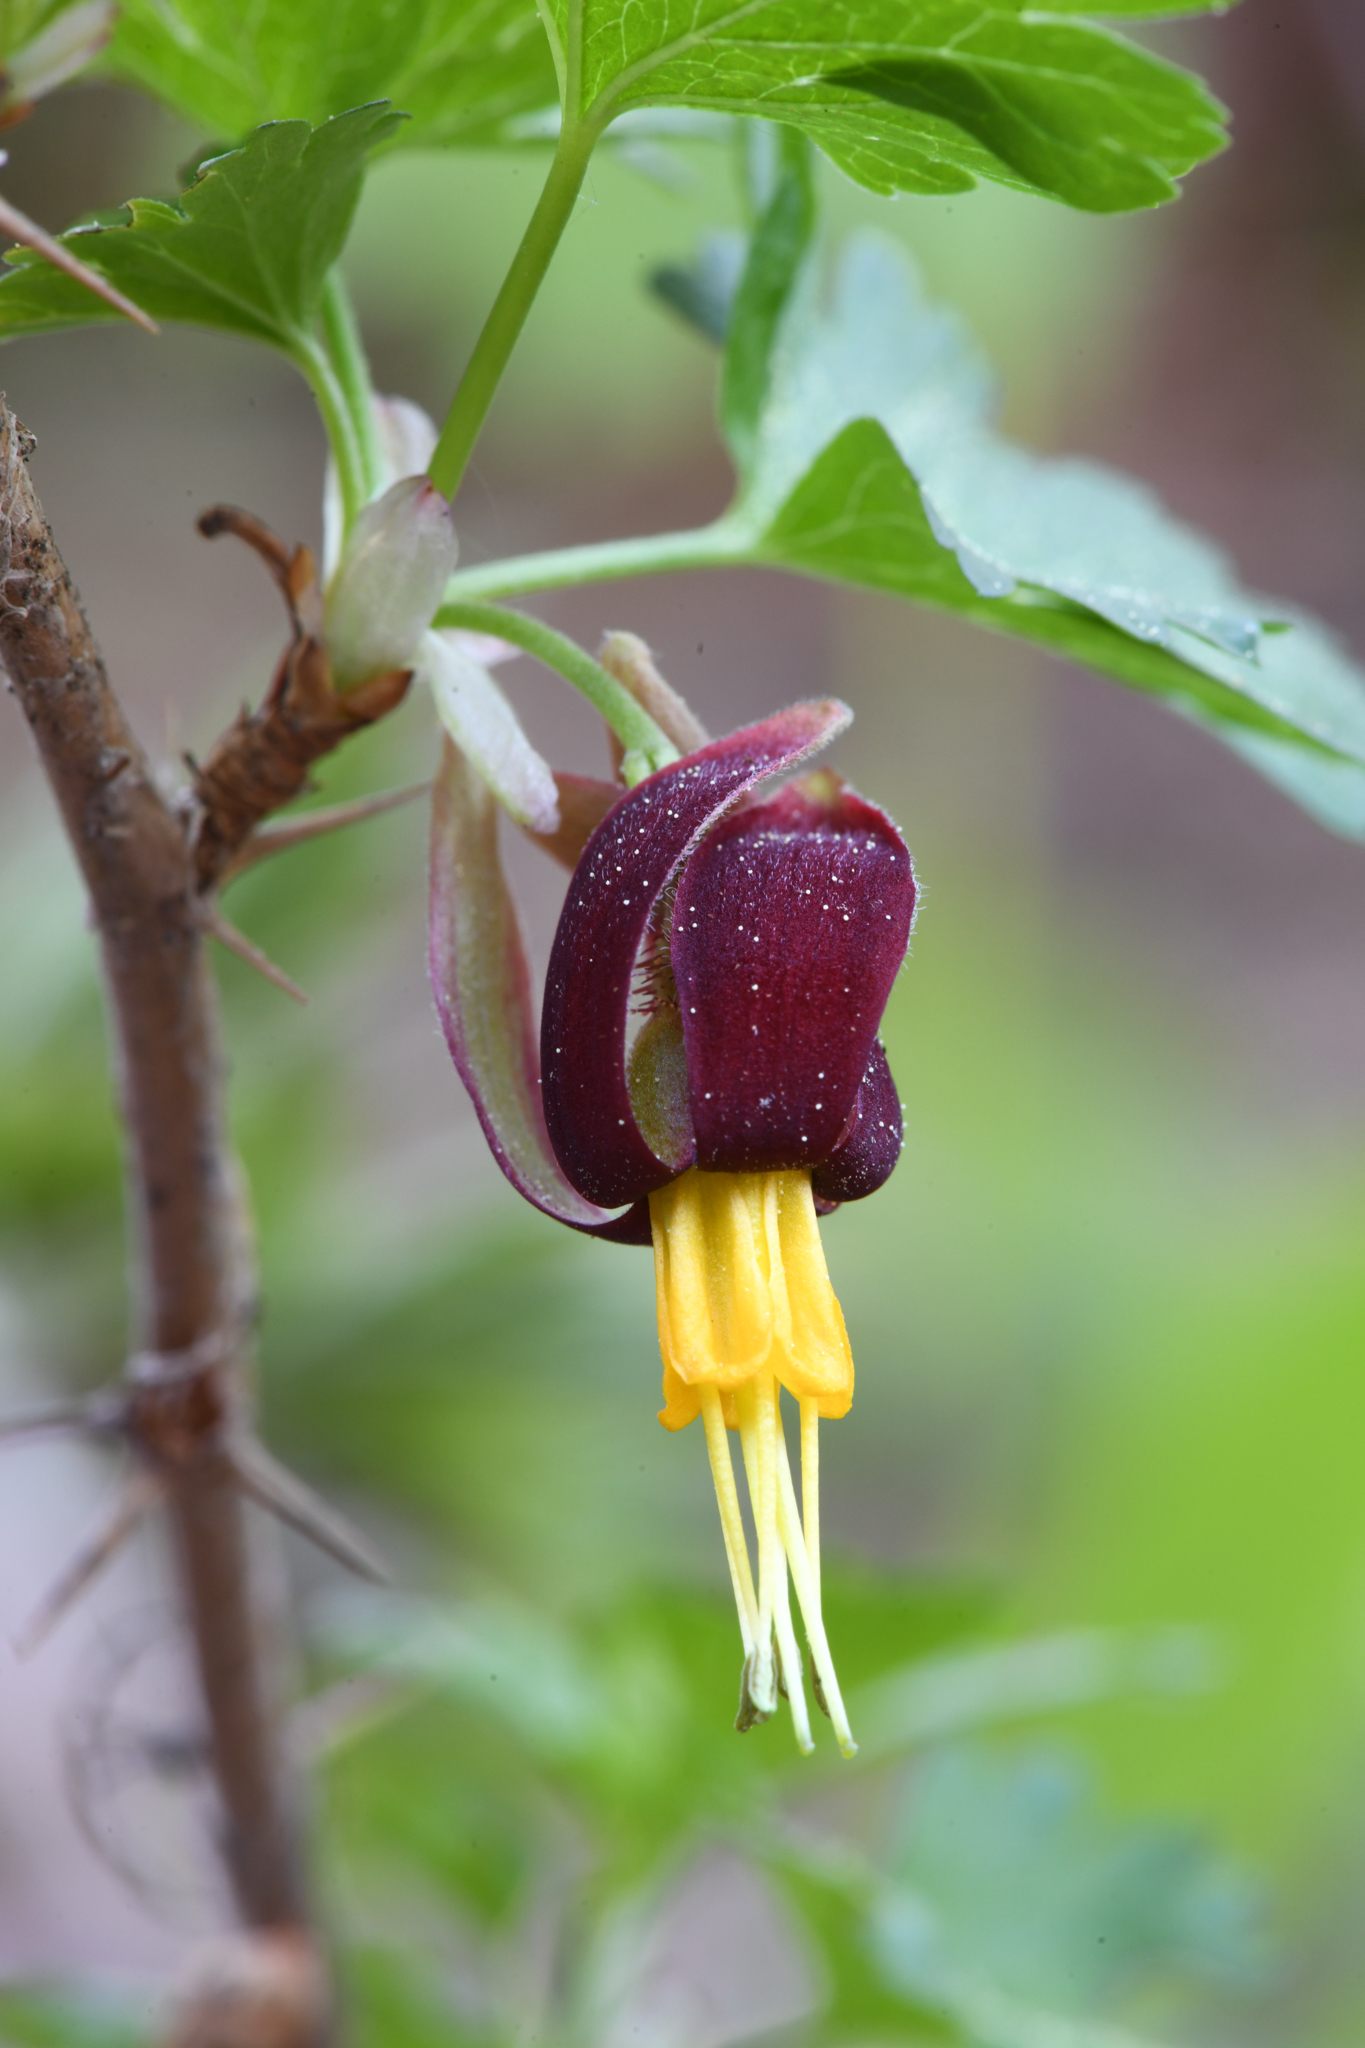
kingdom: Plantae
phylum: Tracheophyta
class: Magnoliopsida
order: Saxifragales
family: Grossulariaceae
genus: Ribes
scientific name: Ribes marshallii
